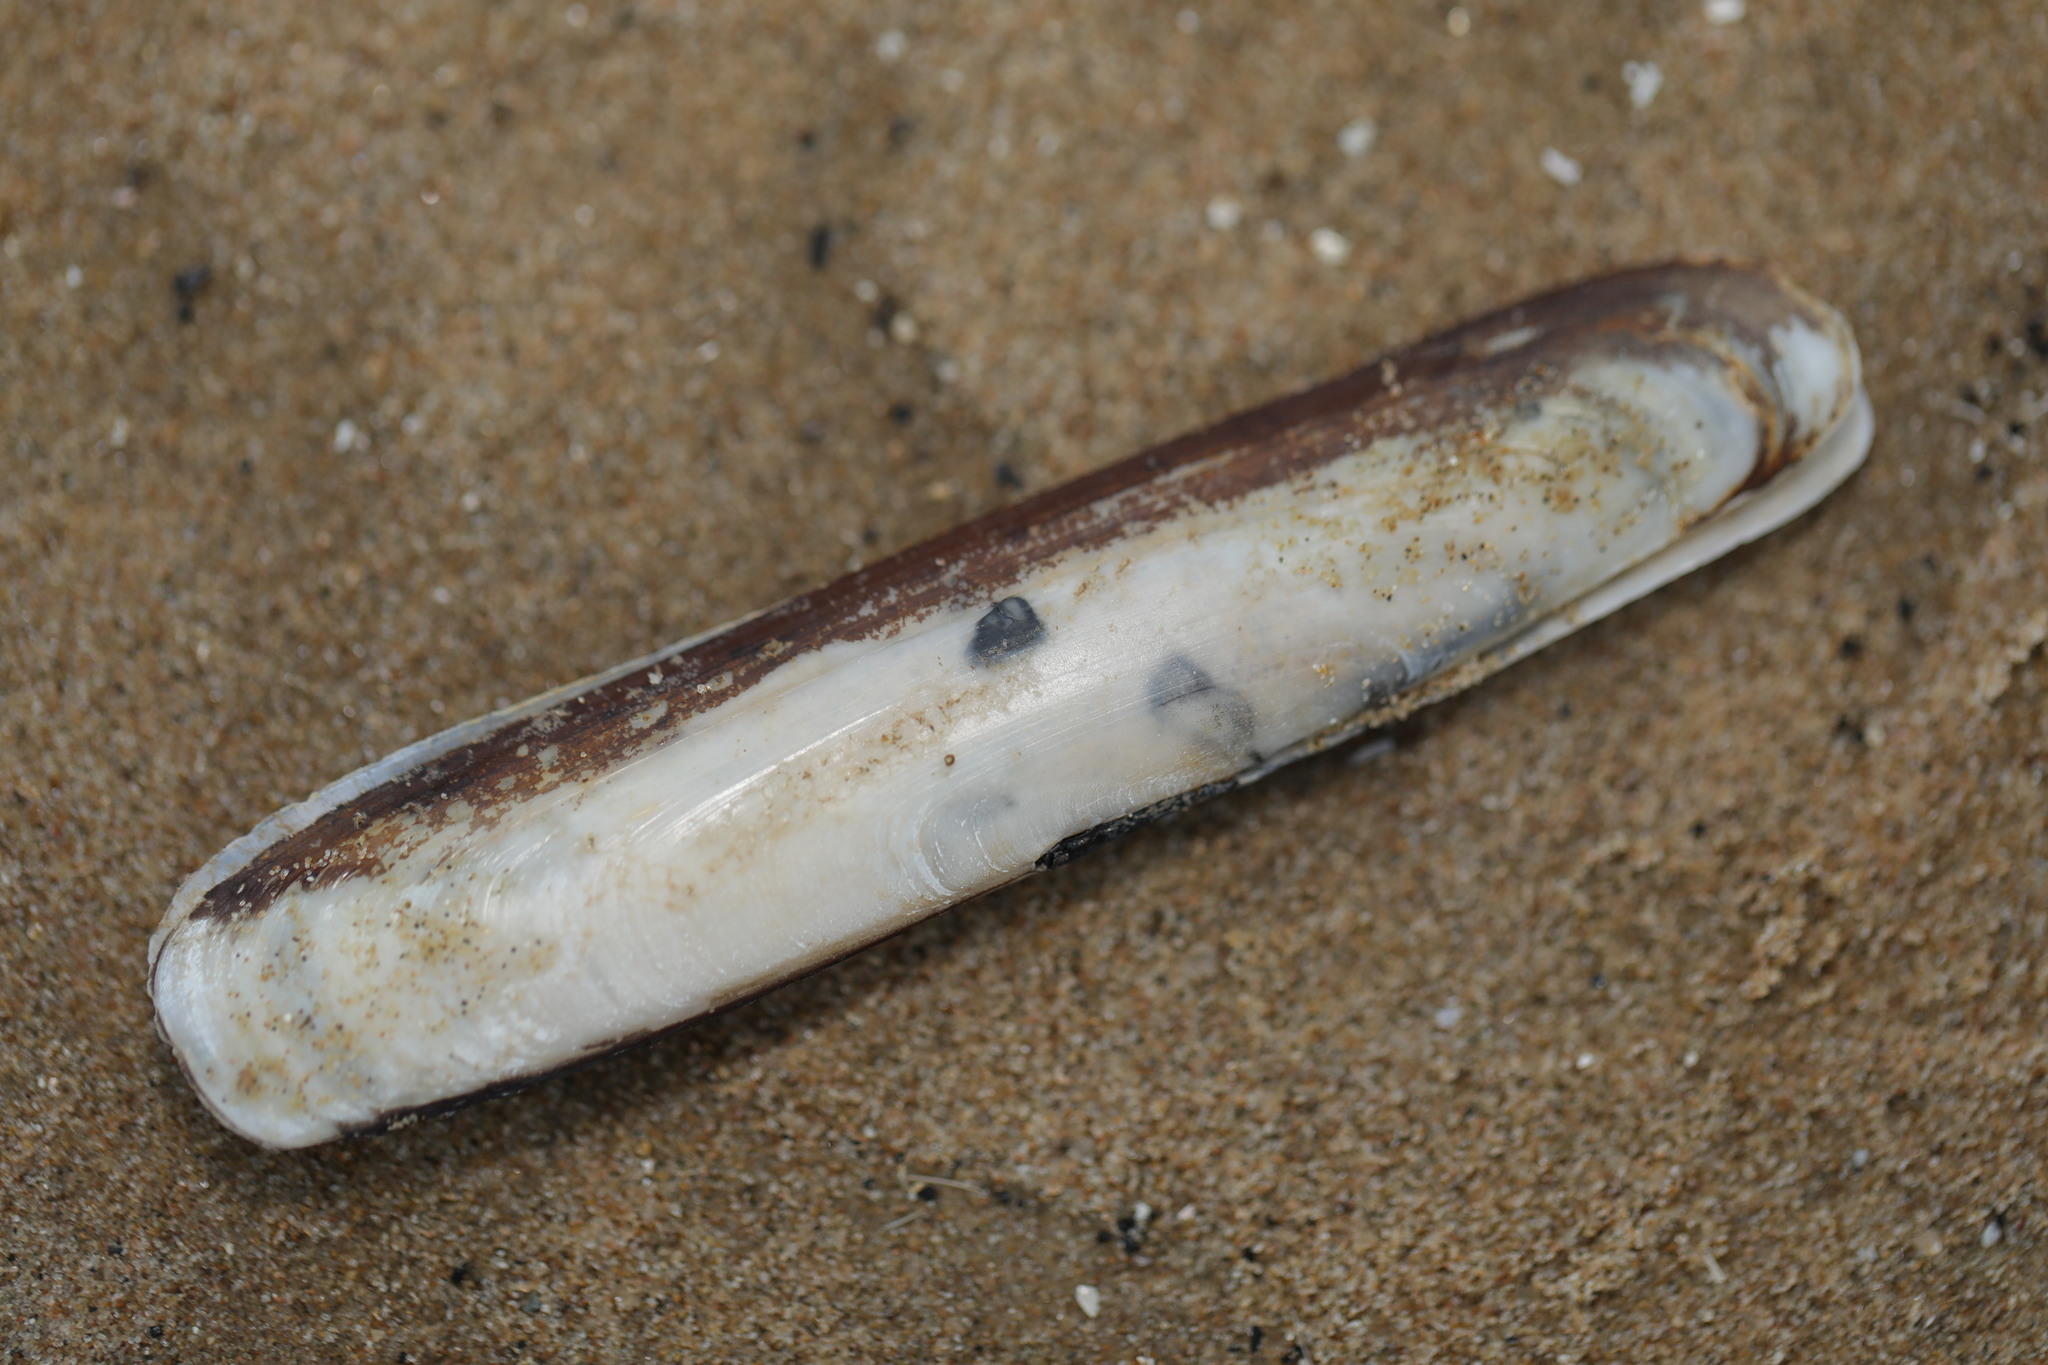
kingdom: Animalia
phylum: Mollusca
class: Bivalvia
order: Adapedonta
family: Pharidae
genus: Pharus
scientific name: Pharus legumen
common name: Bean razor clam
